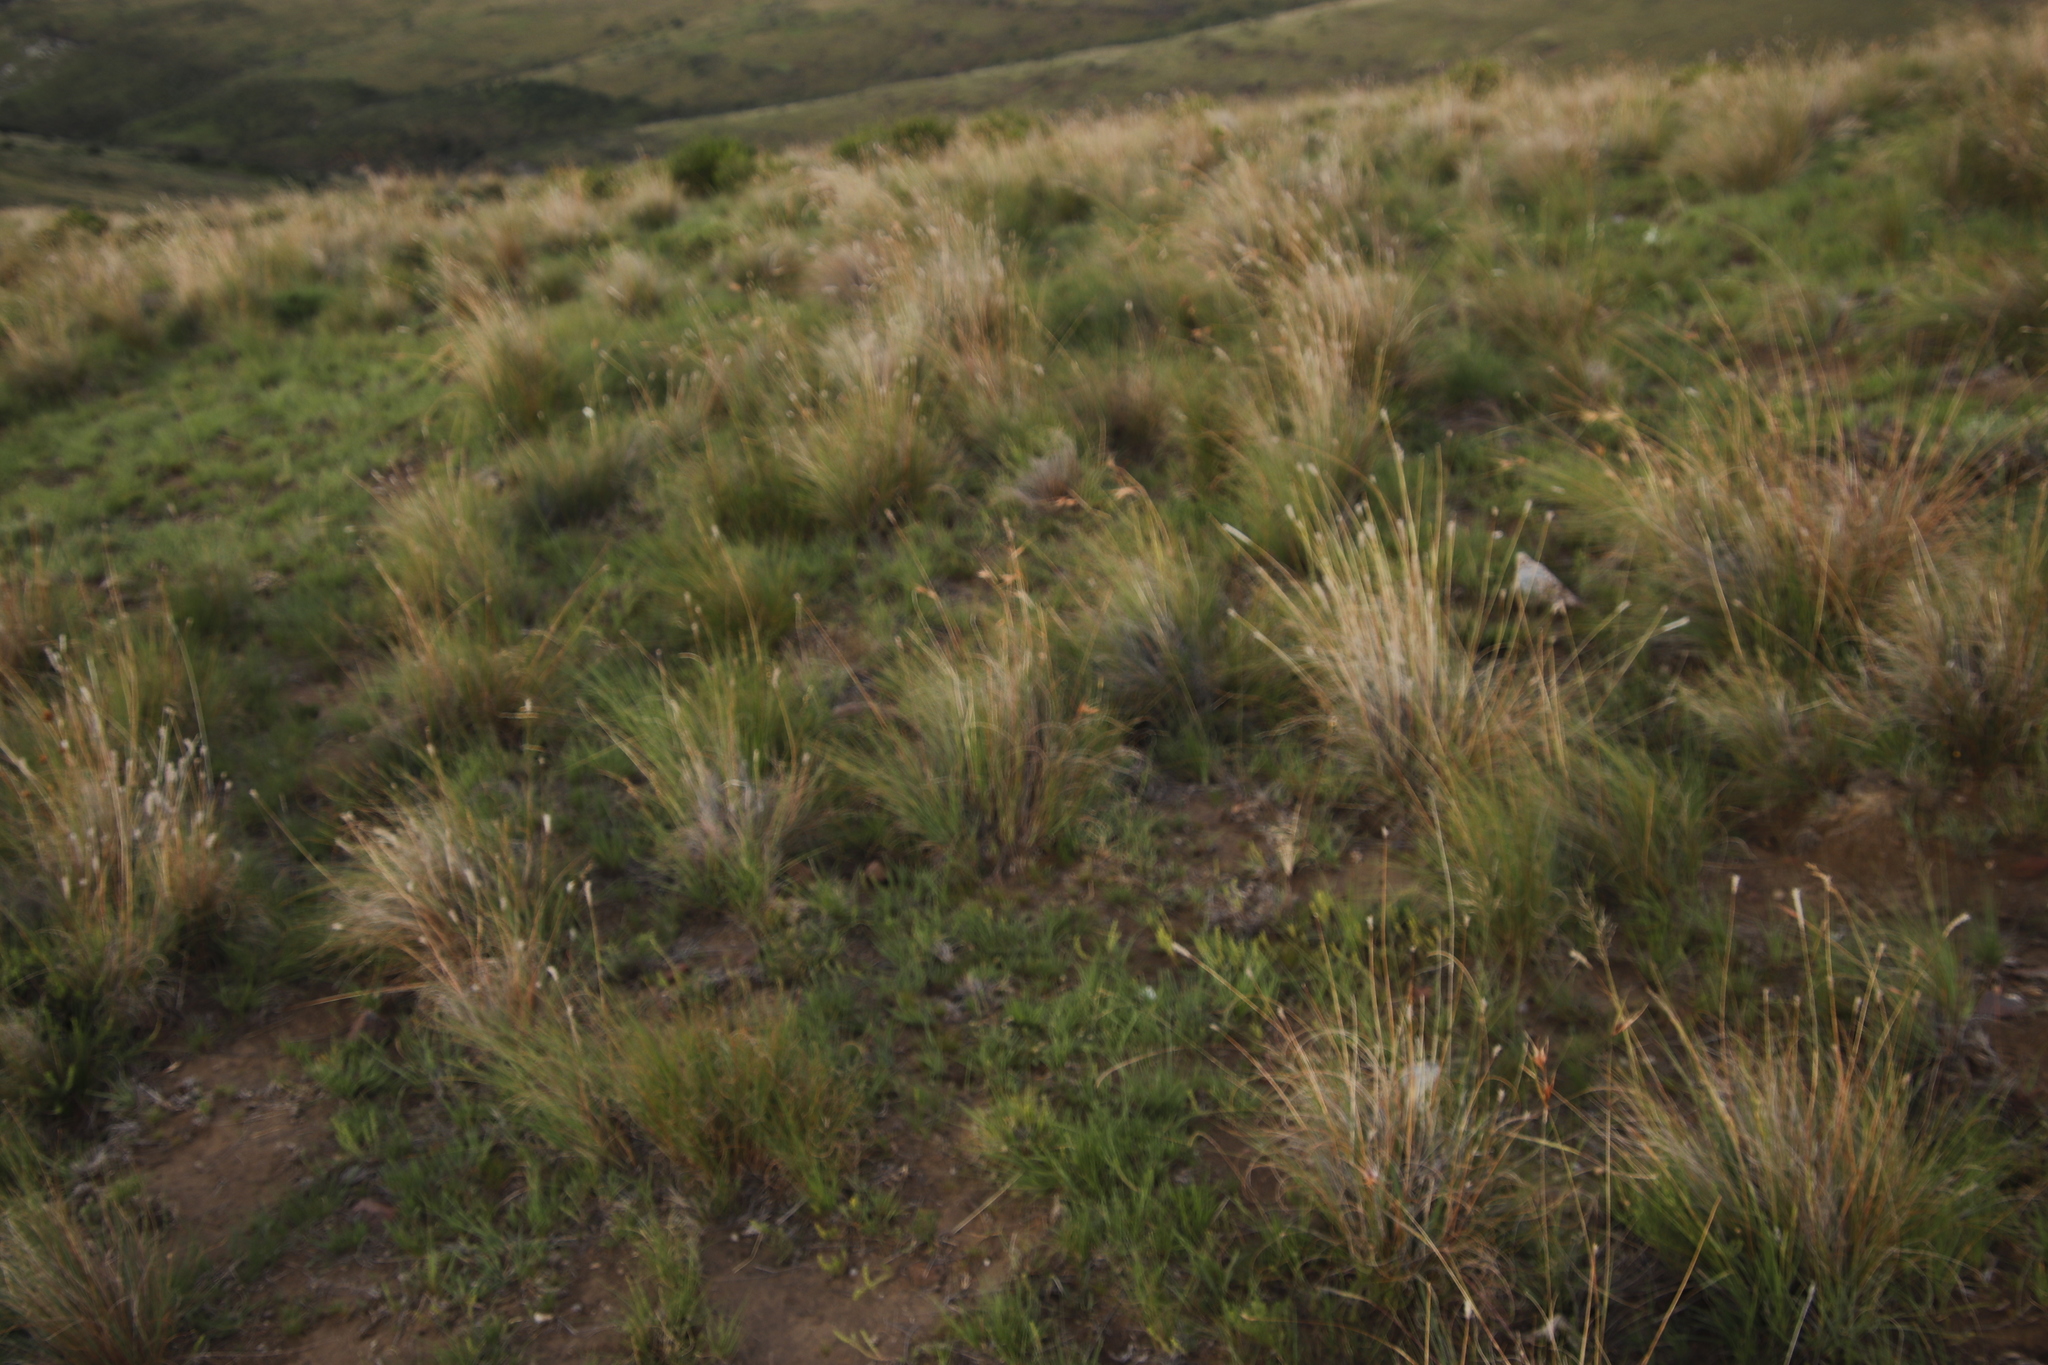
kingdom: Plantae
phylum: Tracheophyta
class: Liliopsida
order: Poales
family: Poaceae
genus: Themeda
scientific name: Themeda triandra
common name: Kangaroo grass
